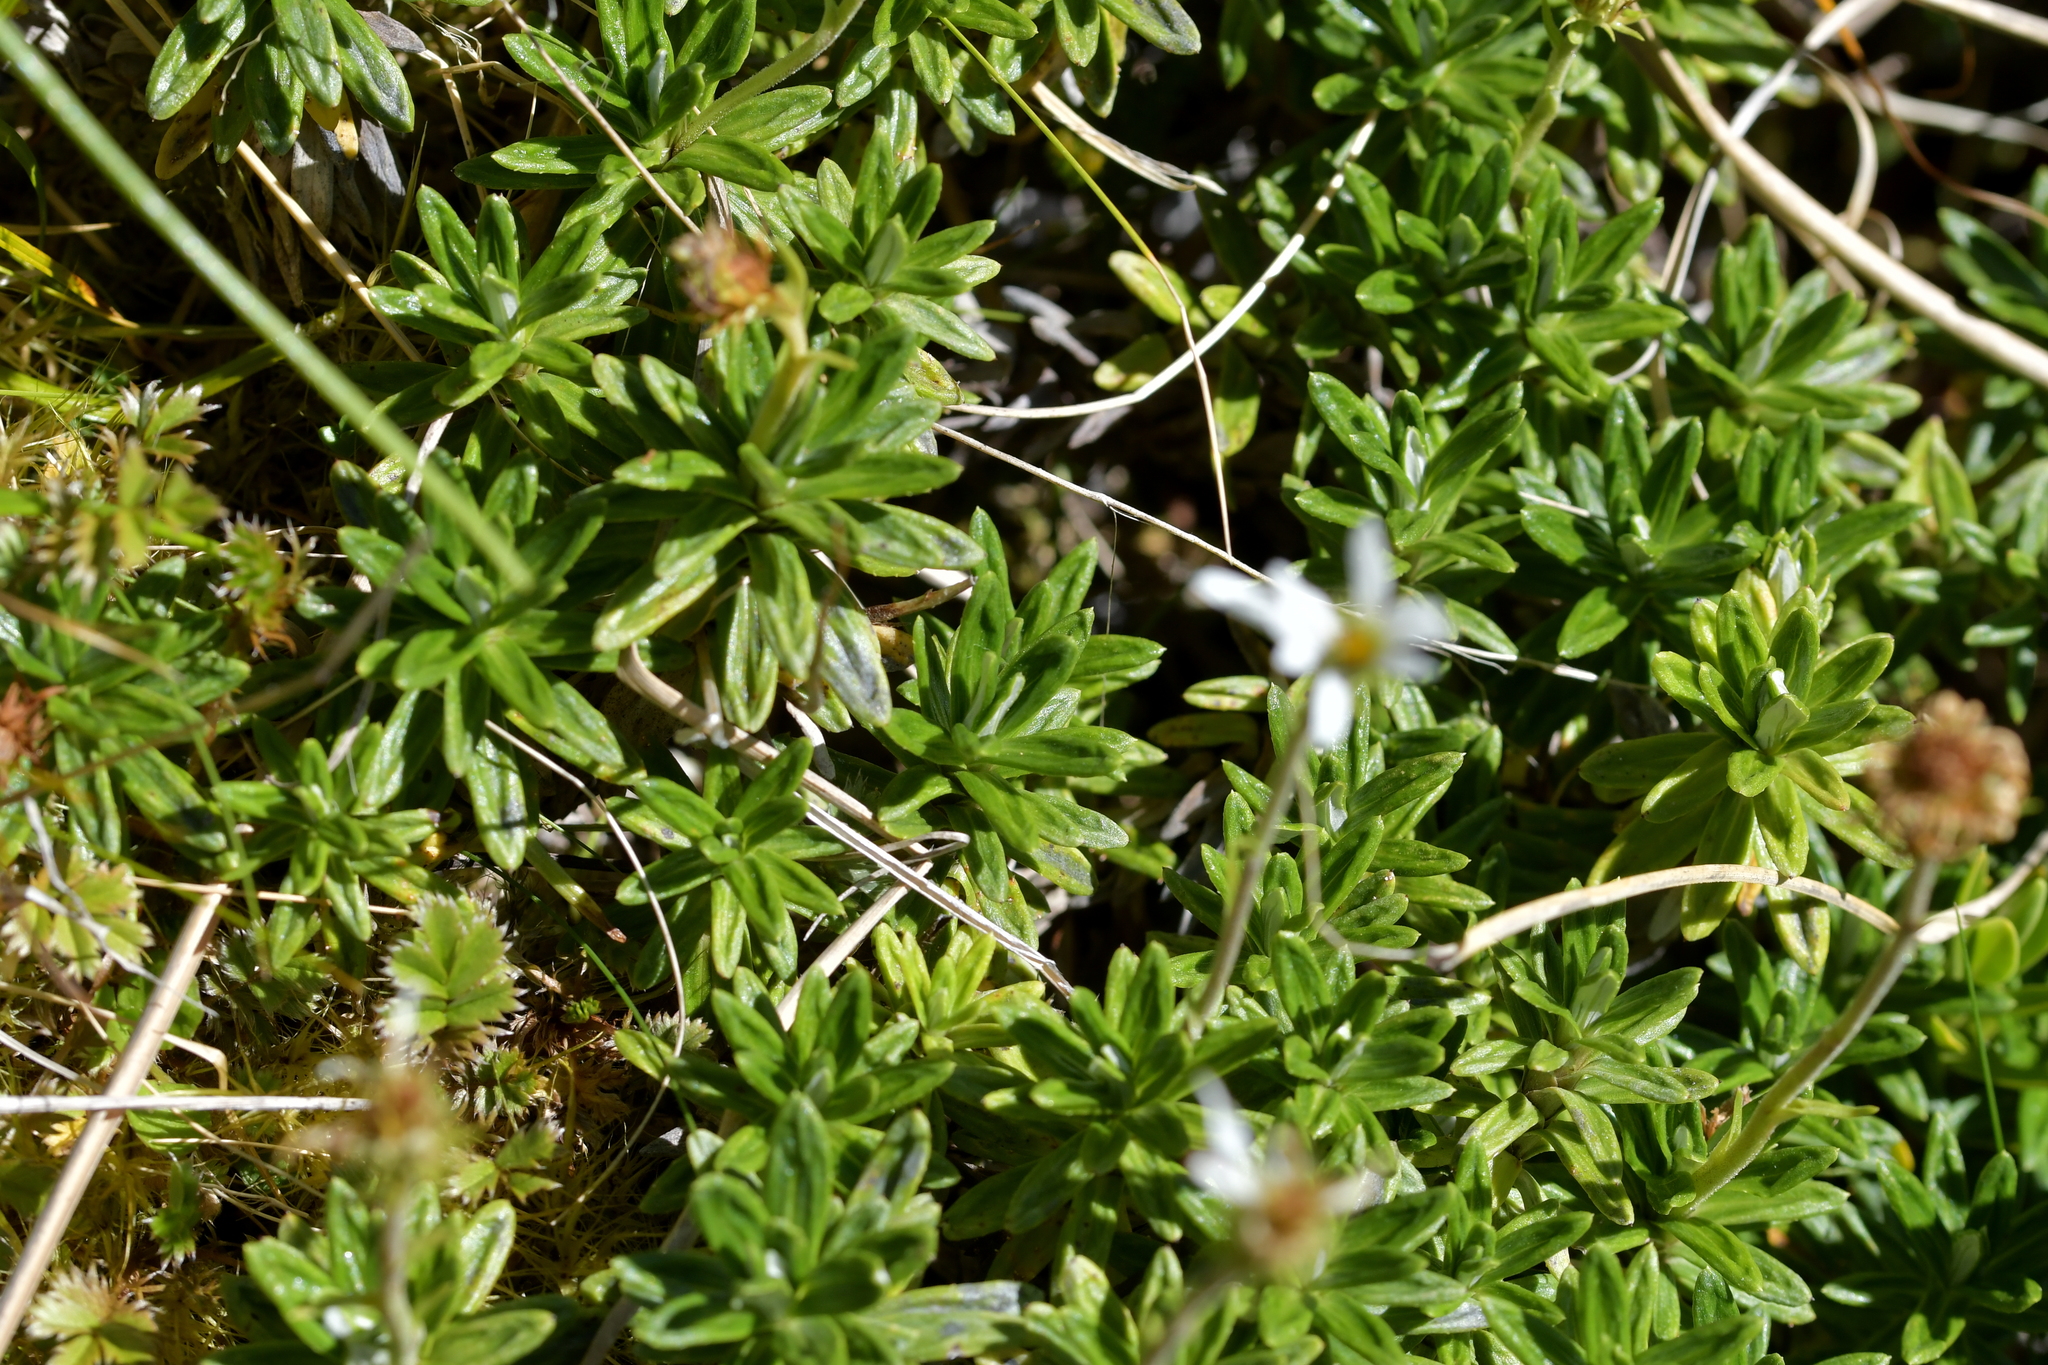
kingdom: Plantae
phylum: Tracheophyta
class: Magnoliopsida
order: Asterales
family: Asteraceae
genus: Celmisia
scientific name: Celmisia walkeri
